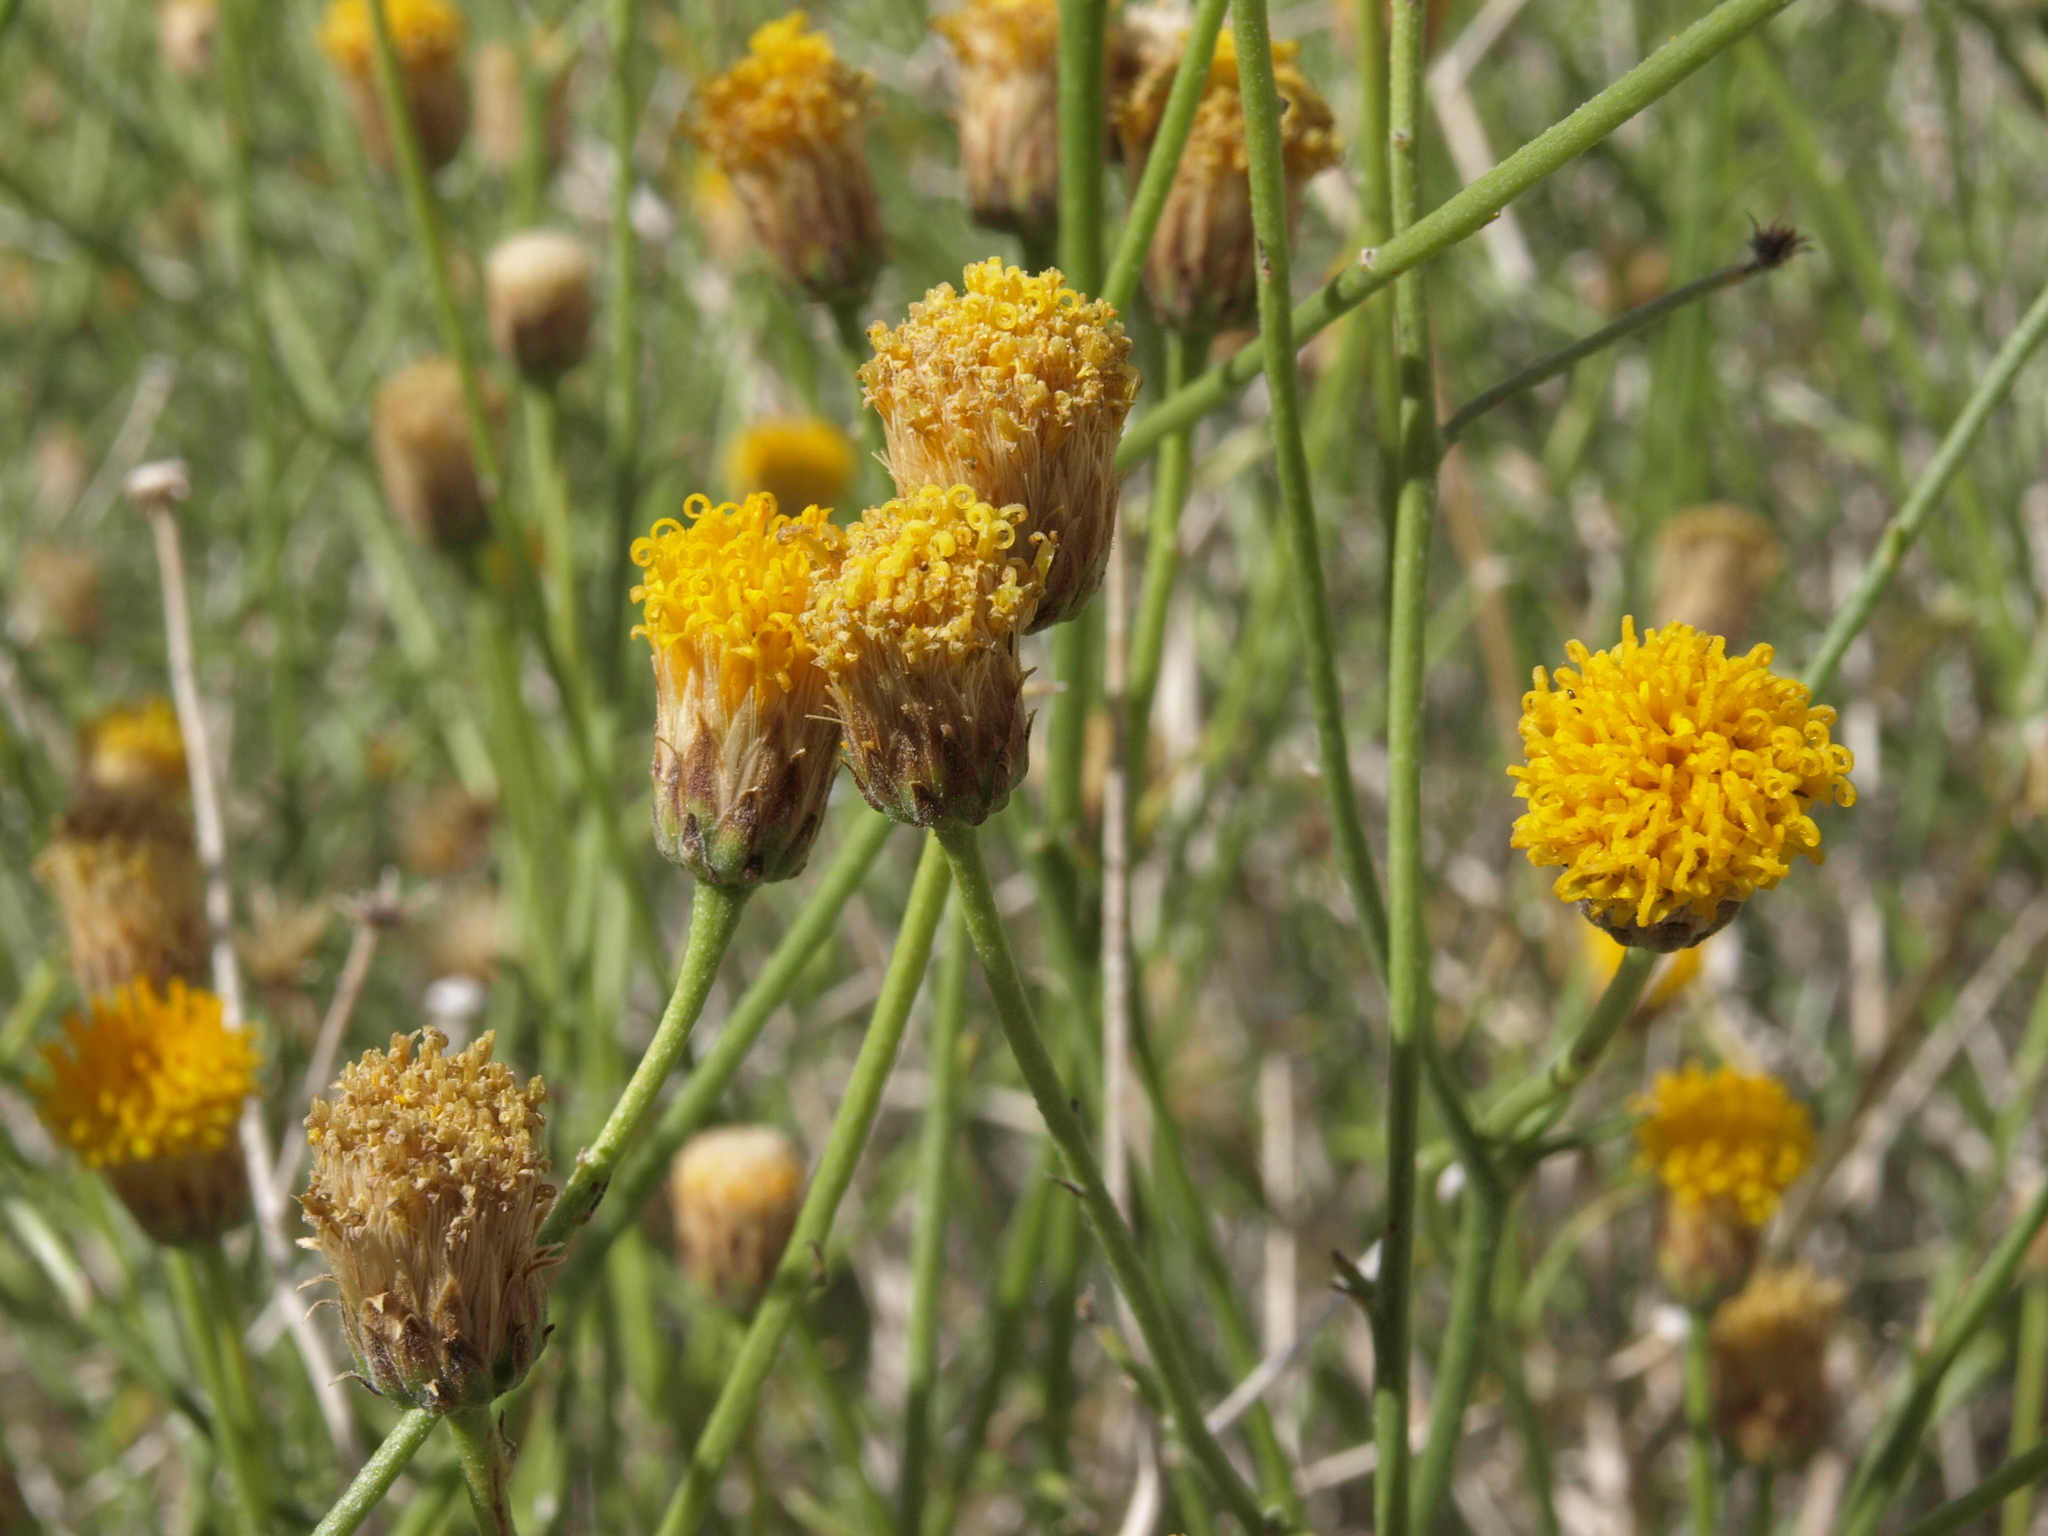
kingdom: Plantae
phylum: Tracheophyta
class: Magnoliopsida
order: Asterales
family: Asteraceae
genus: Bebbia
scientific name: Bebbia juncea
